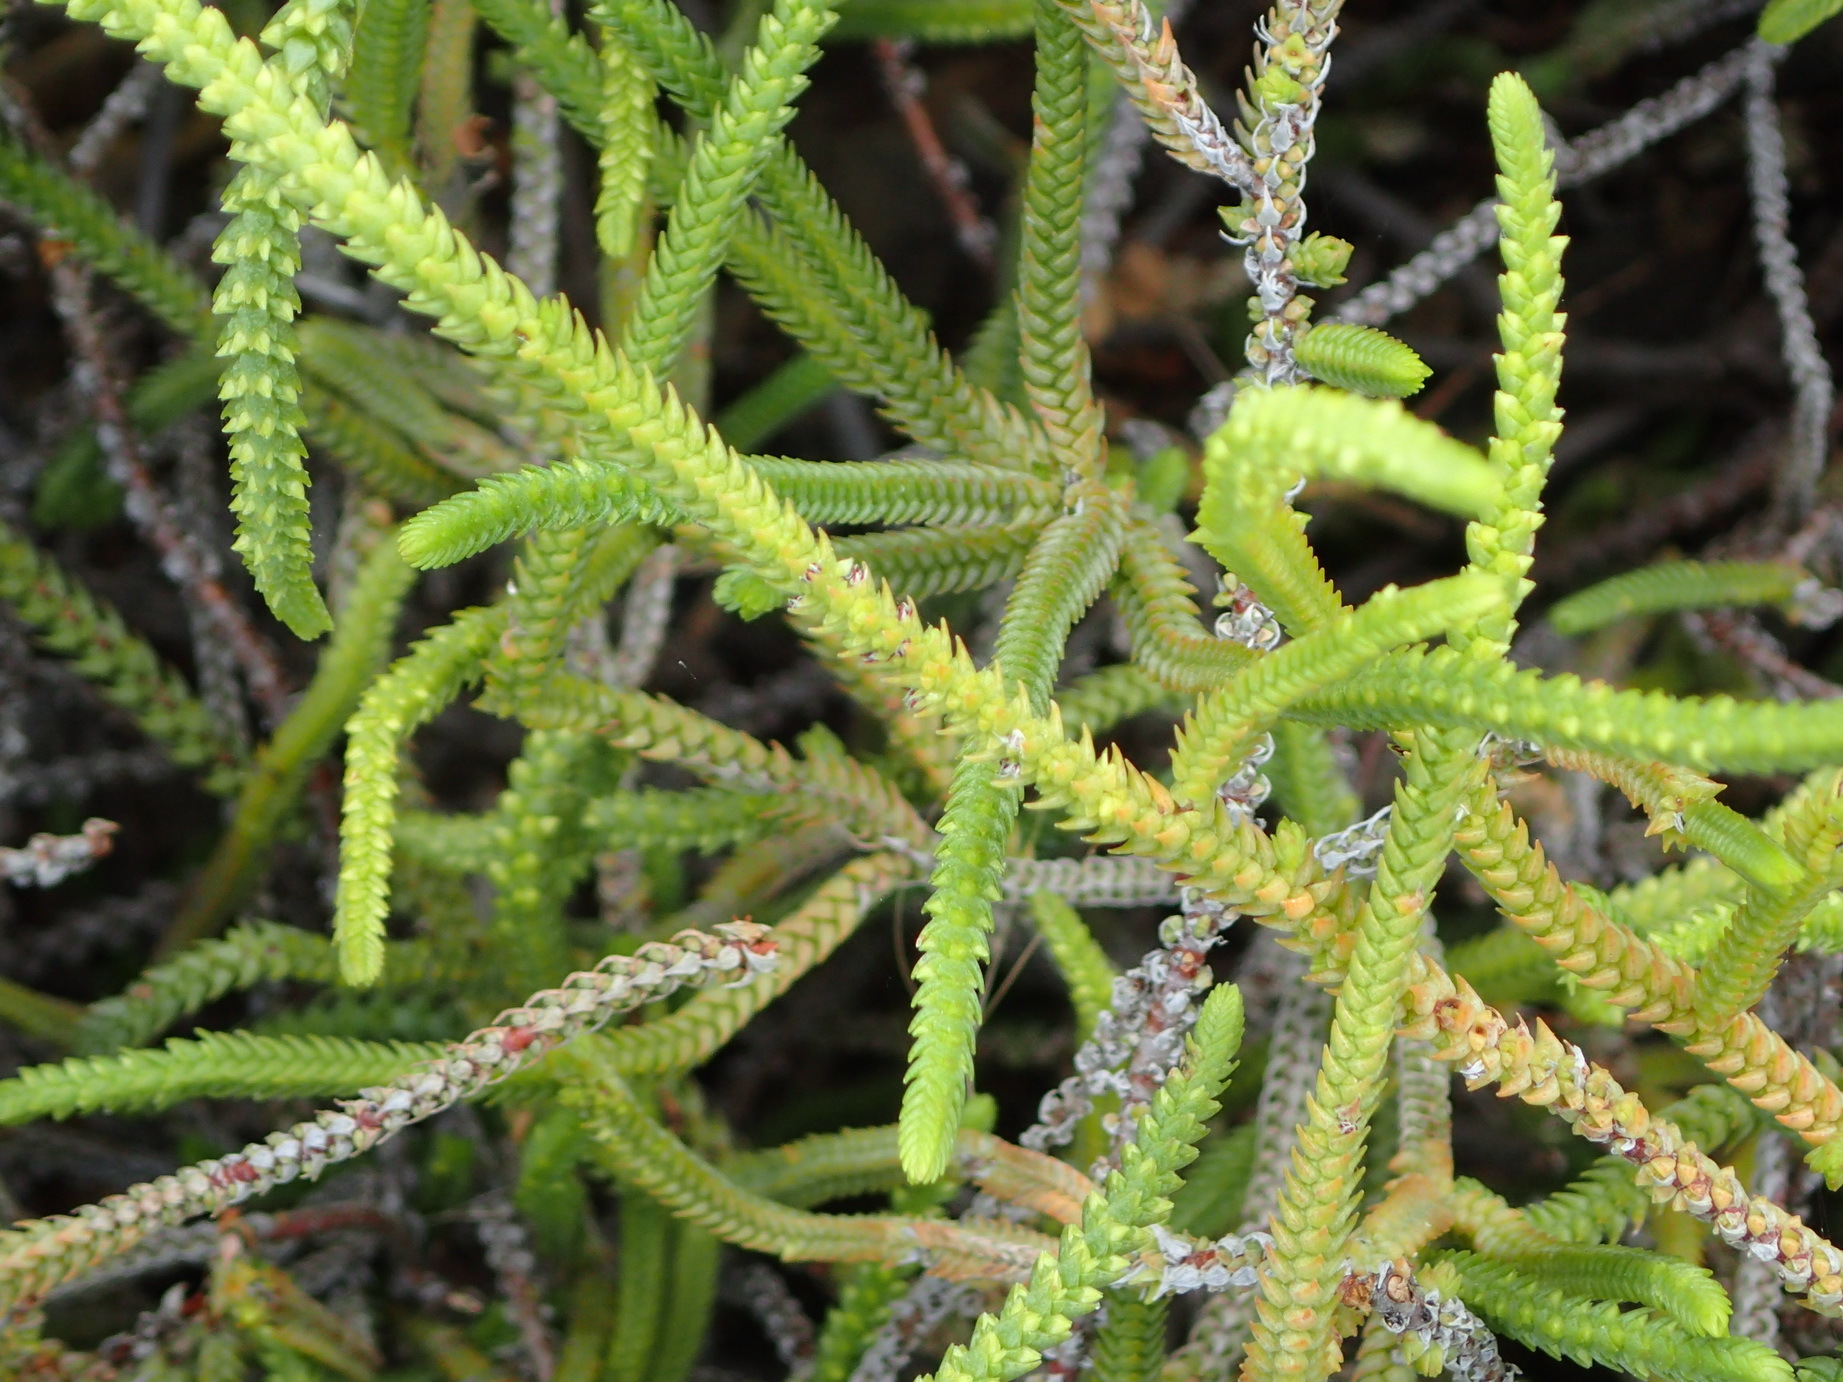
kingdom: Plantae
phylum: Tracheophyta
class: Magnoliopsida
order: Saxifragales
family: Crassulaceae
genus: Crassula
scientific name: Crassula muscosa
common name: Toy-cypress
